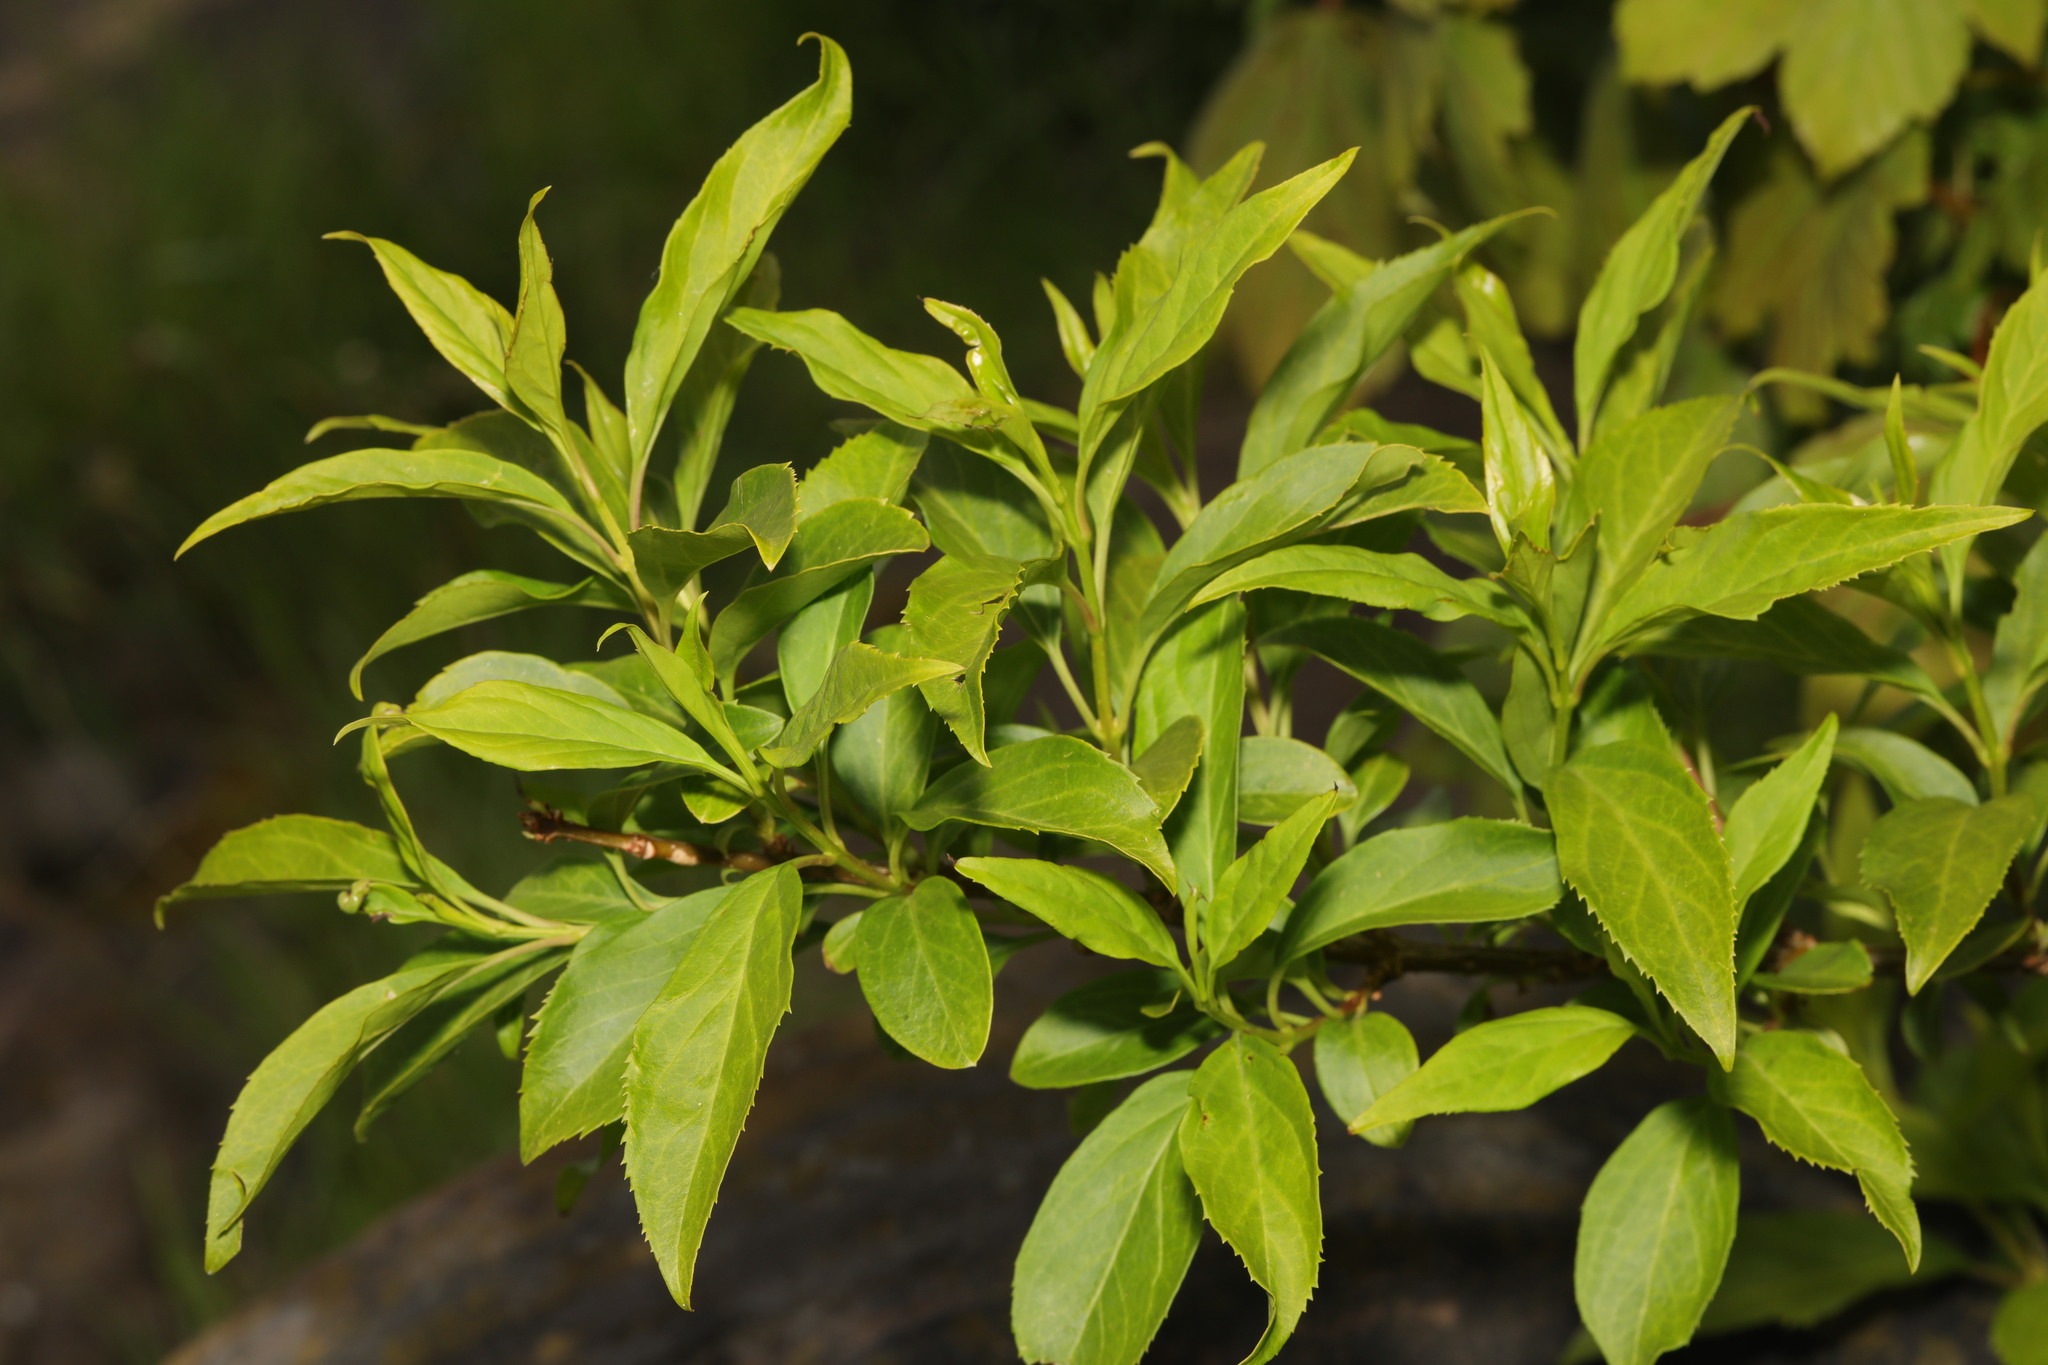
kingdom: Plantae
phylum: Tracheophyta
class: Magnoliopsida
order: Lamiales
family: Oleaceae
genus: Forsythia
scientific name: Forsythia intermedia
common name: Forsythia
